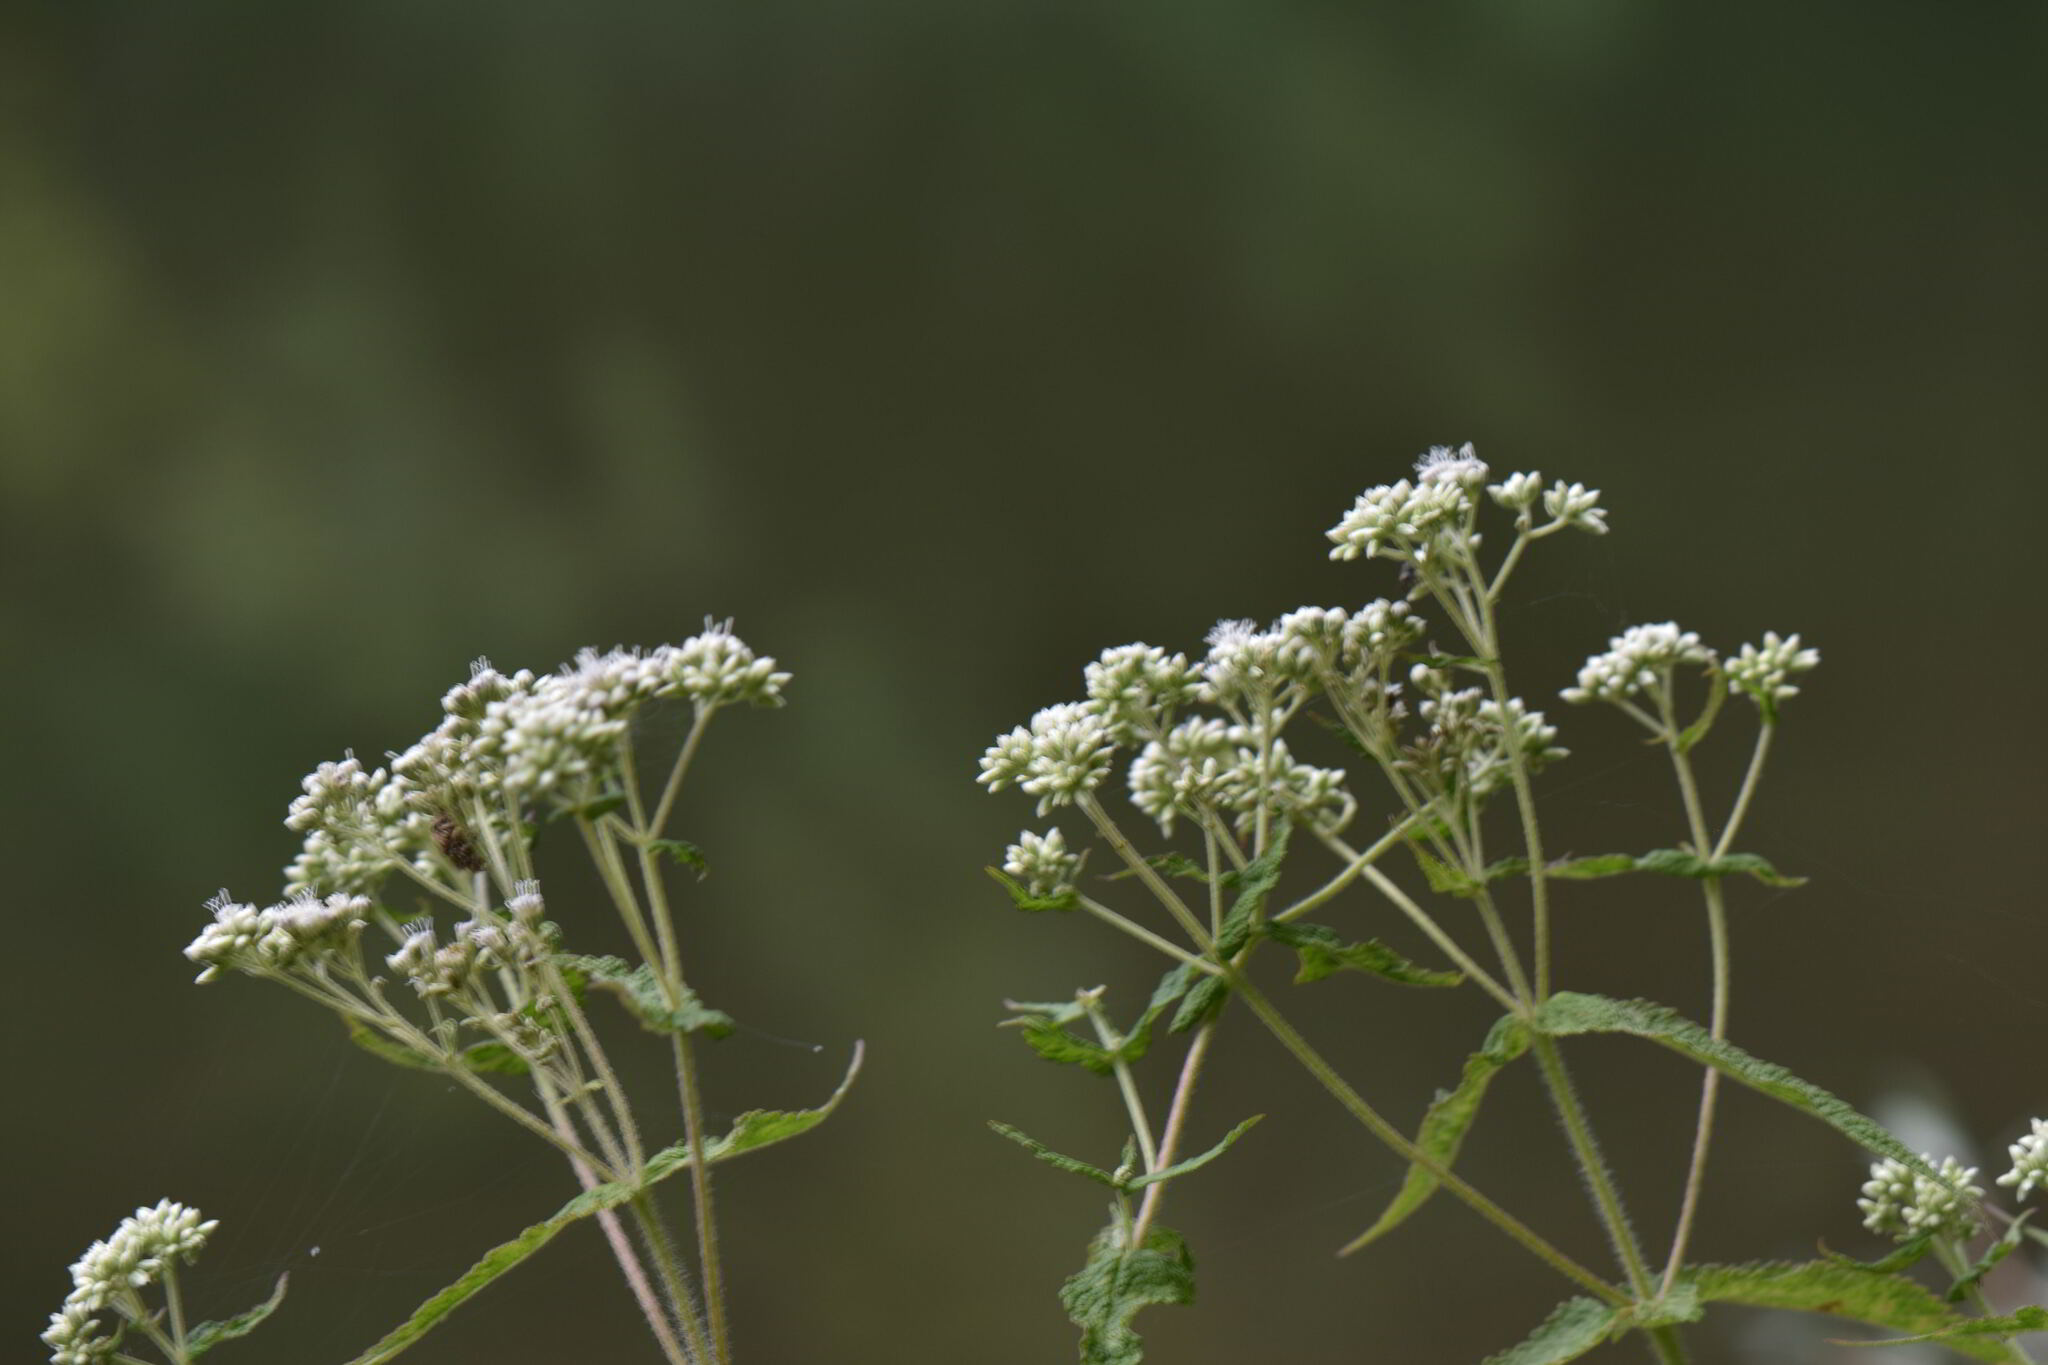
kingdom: Plantae
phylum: Tracheophyta
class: Magnoliopsida
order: Asterales
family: Asteraceae
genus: Eupatorium
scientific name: Eupatorium perfoliatum
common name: Boneset
